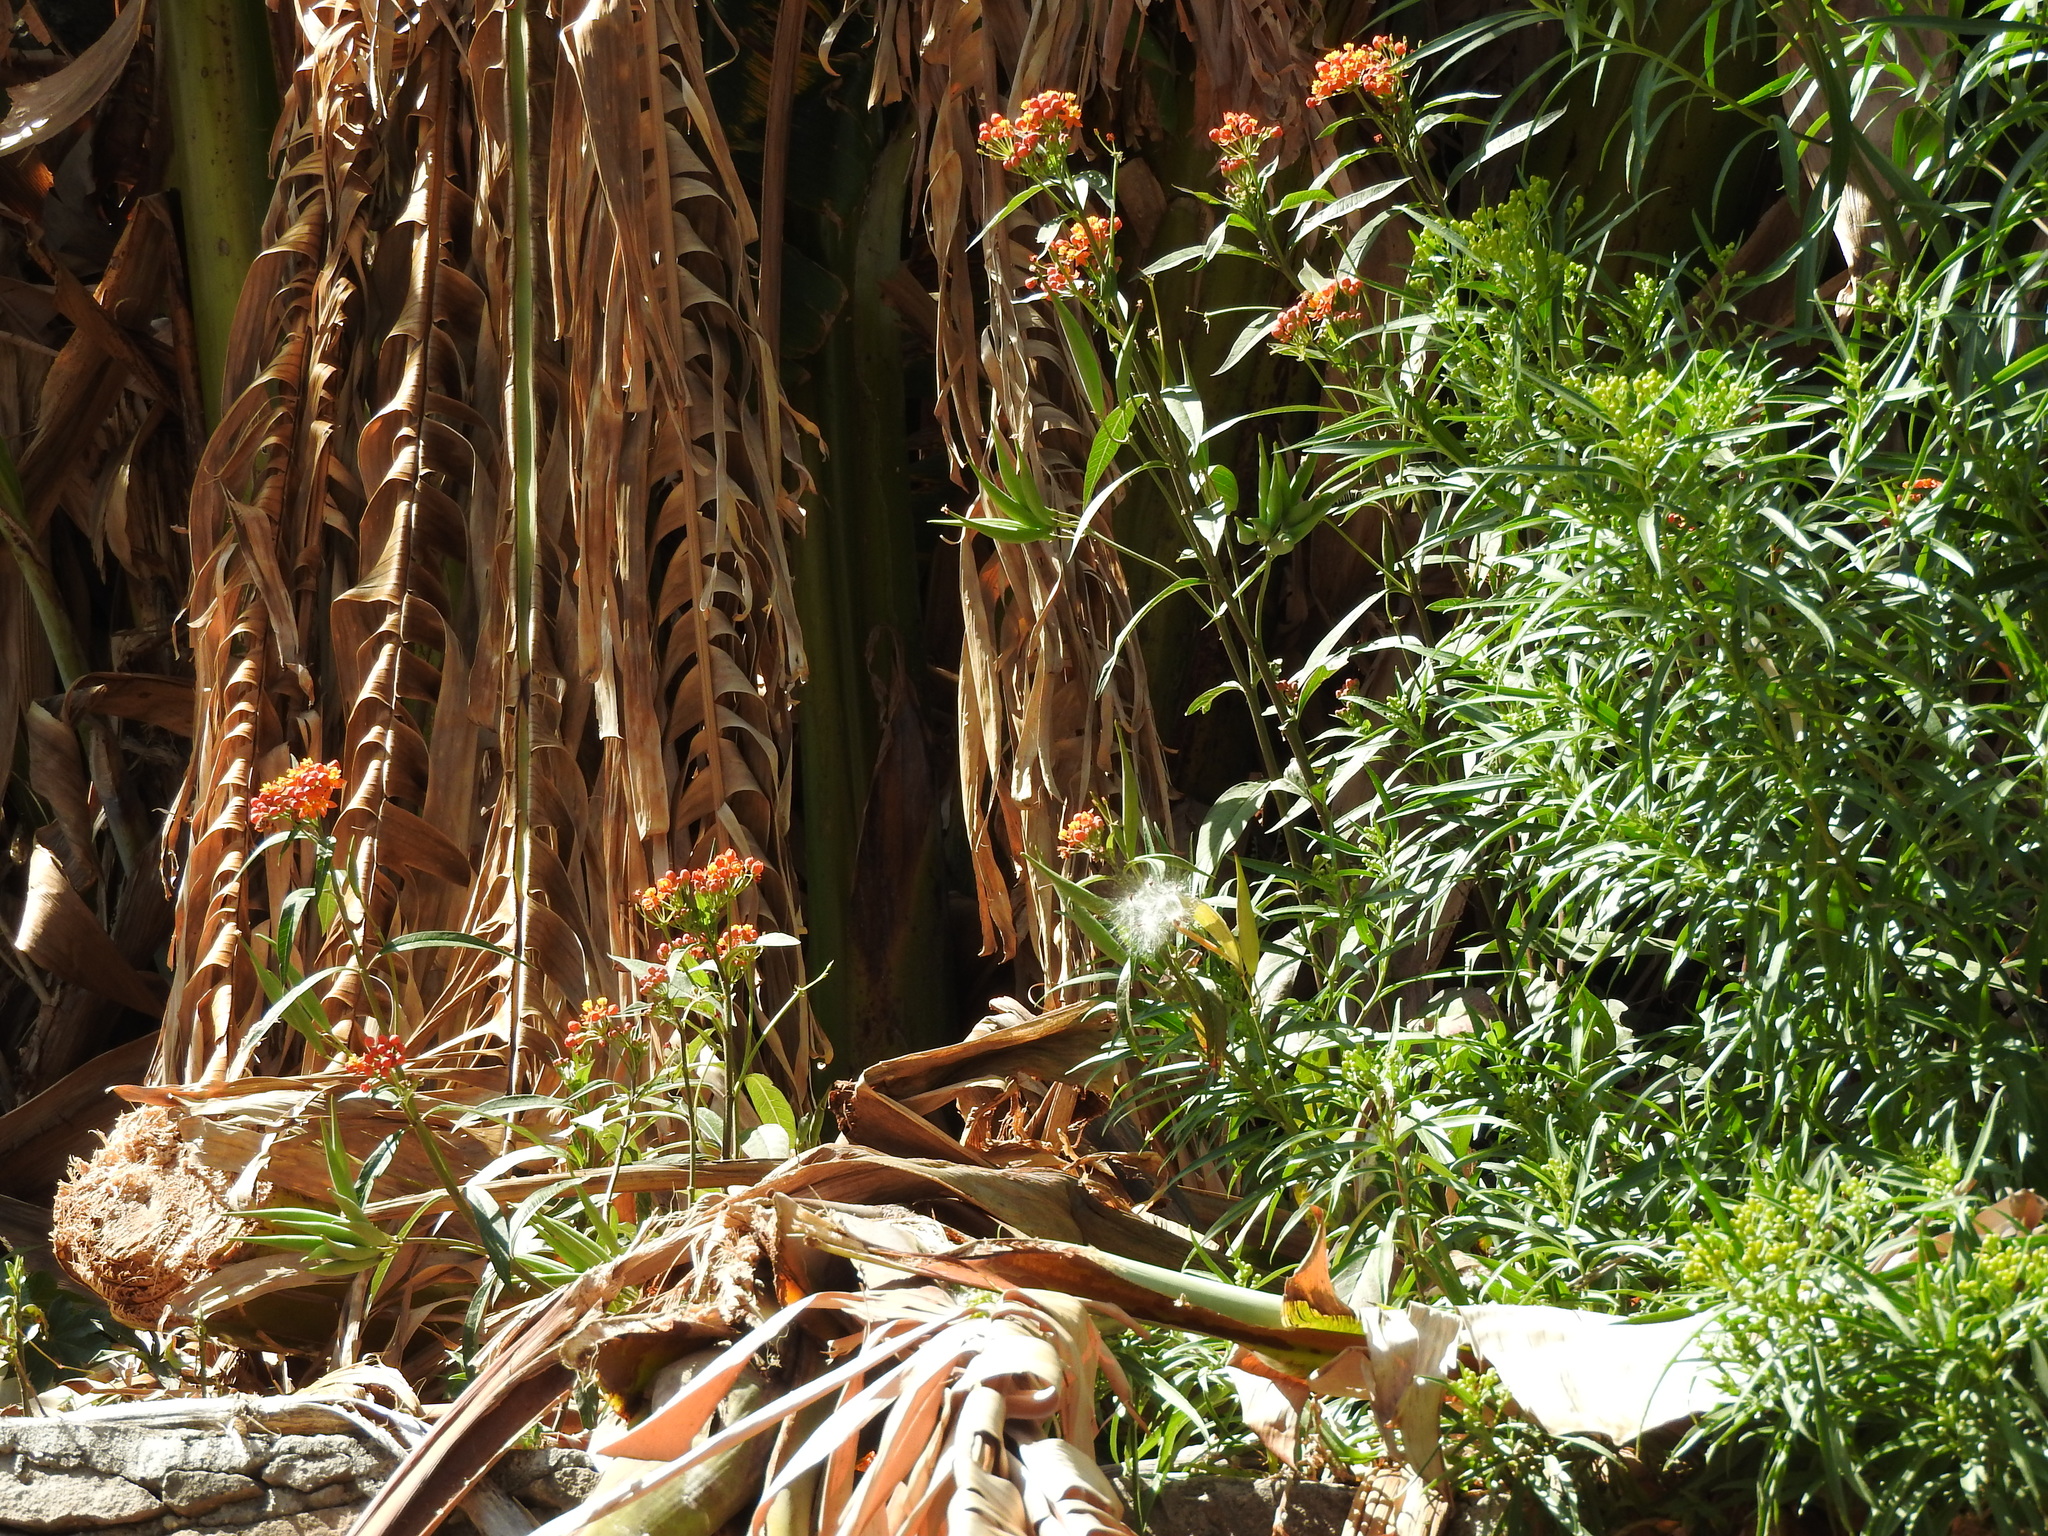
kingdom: Plantae
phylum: Tracheophyta
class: Magnoliopsida
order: Gentianales
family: Apocynaceae
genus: Asclepias
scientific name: Asclepias curassavica
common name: Bloodflower
